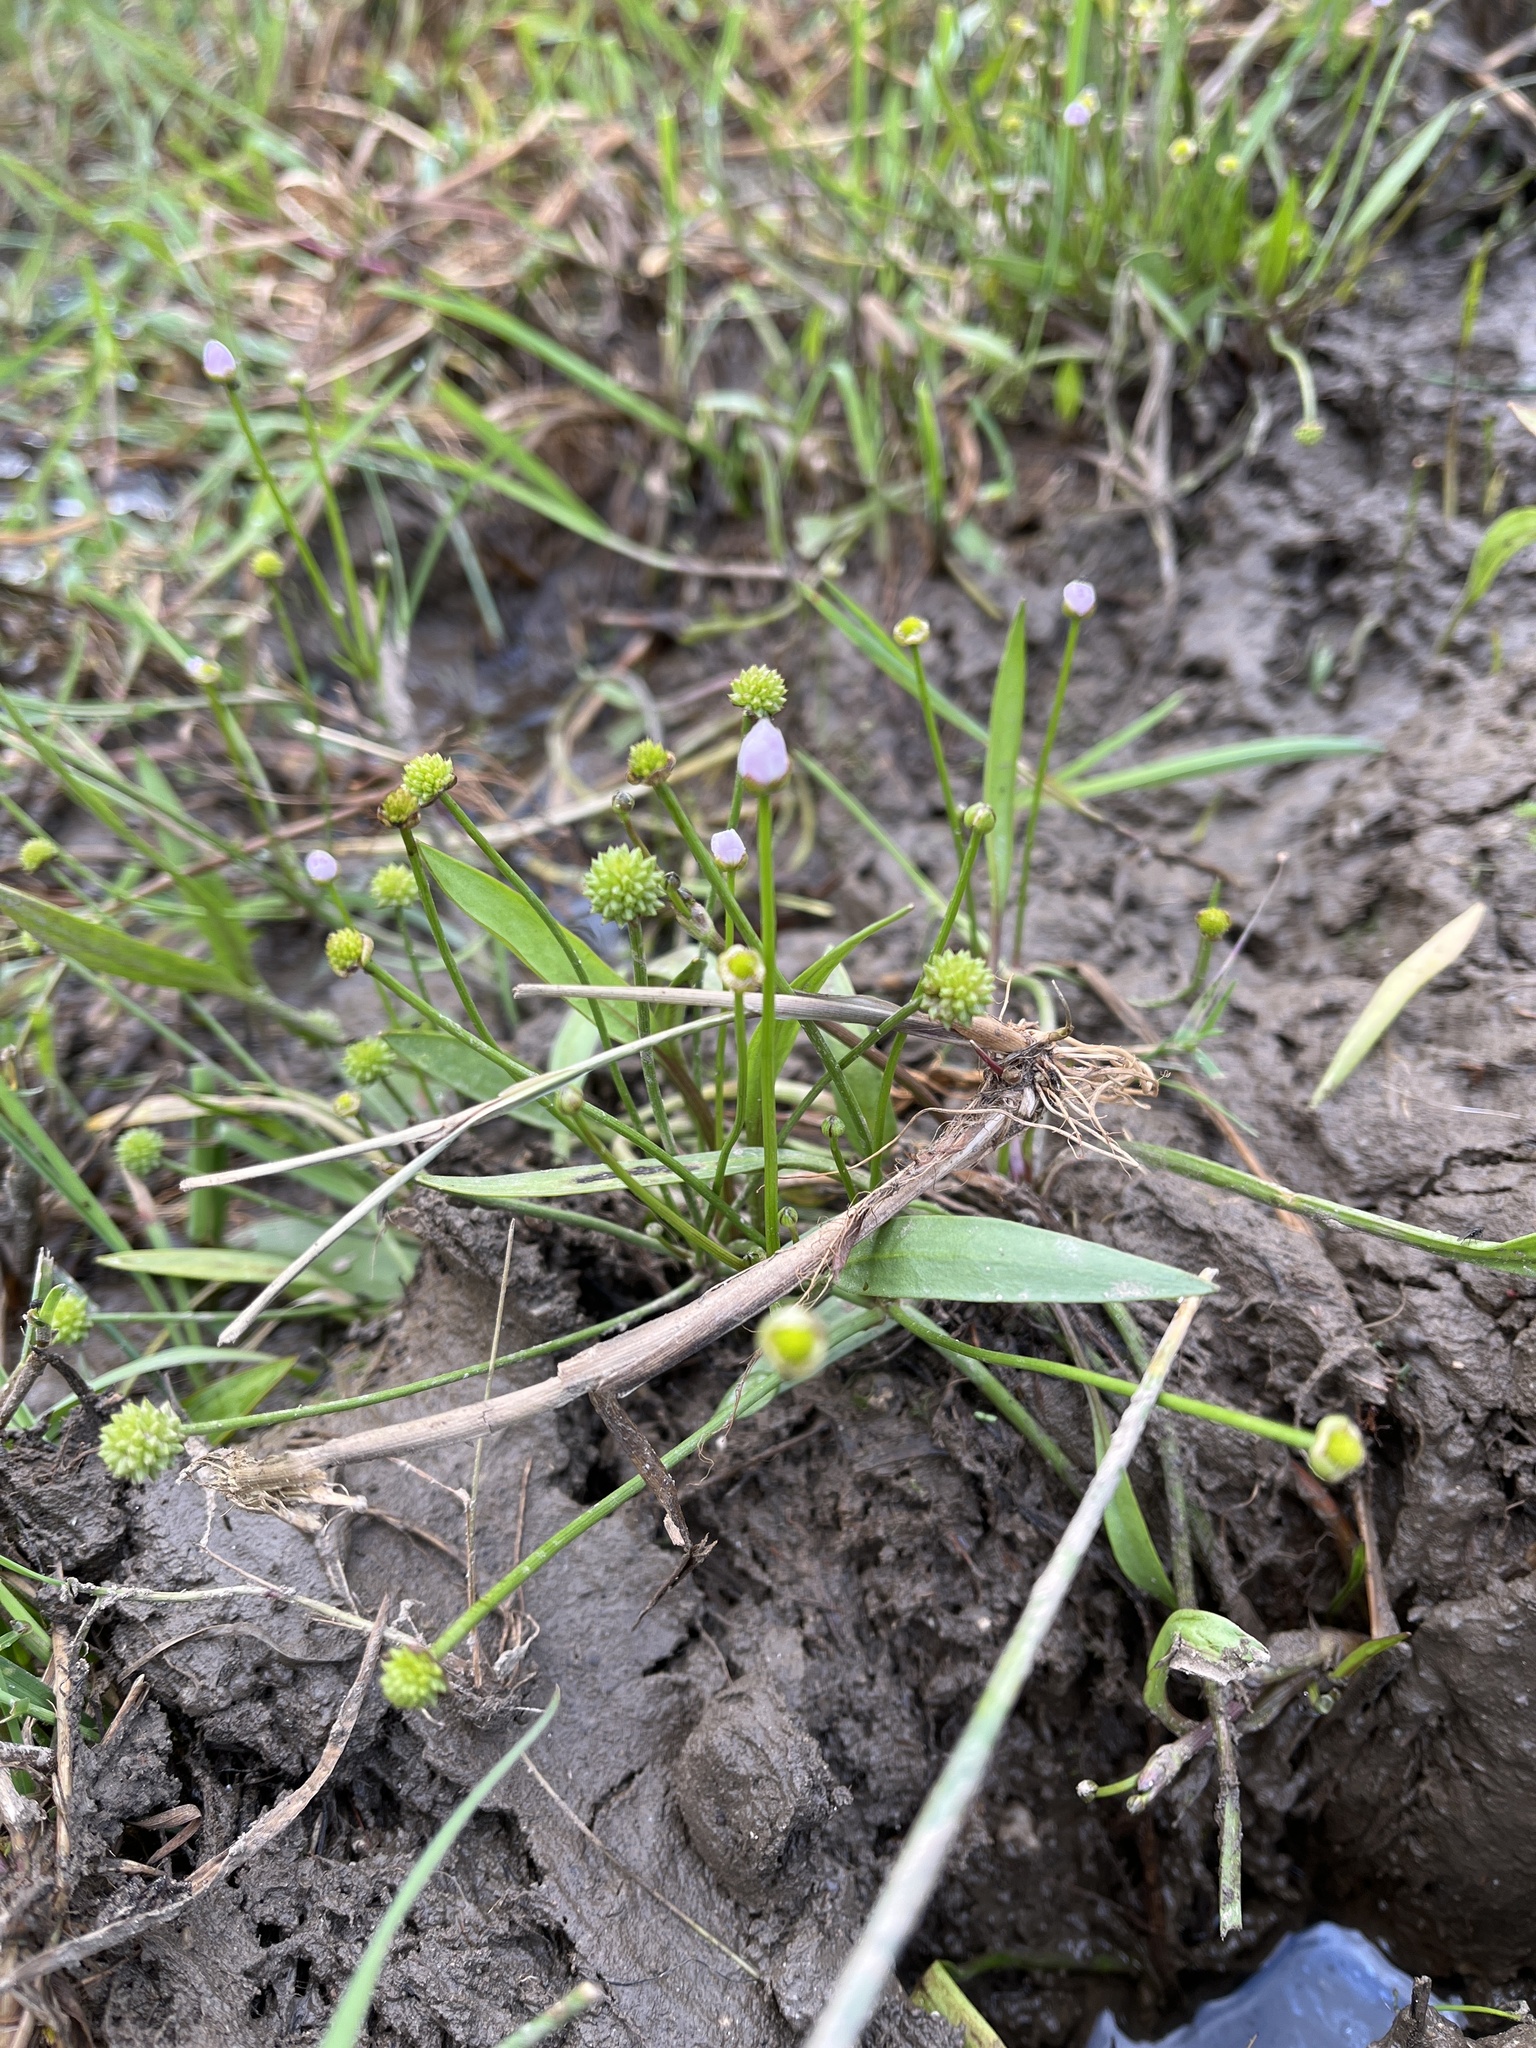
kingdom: Plantae
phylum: Tracheophyta
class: Liliopsida
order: Alismatales
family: Alismataceae
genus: Baldellia
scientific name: Baldellia ranunculoides
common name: Lesser water-plantain
